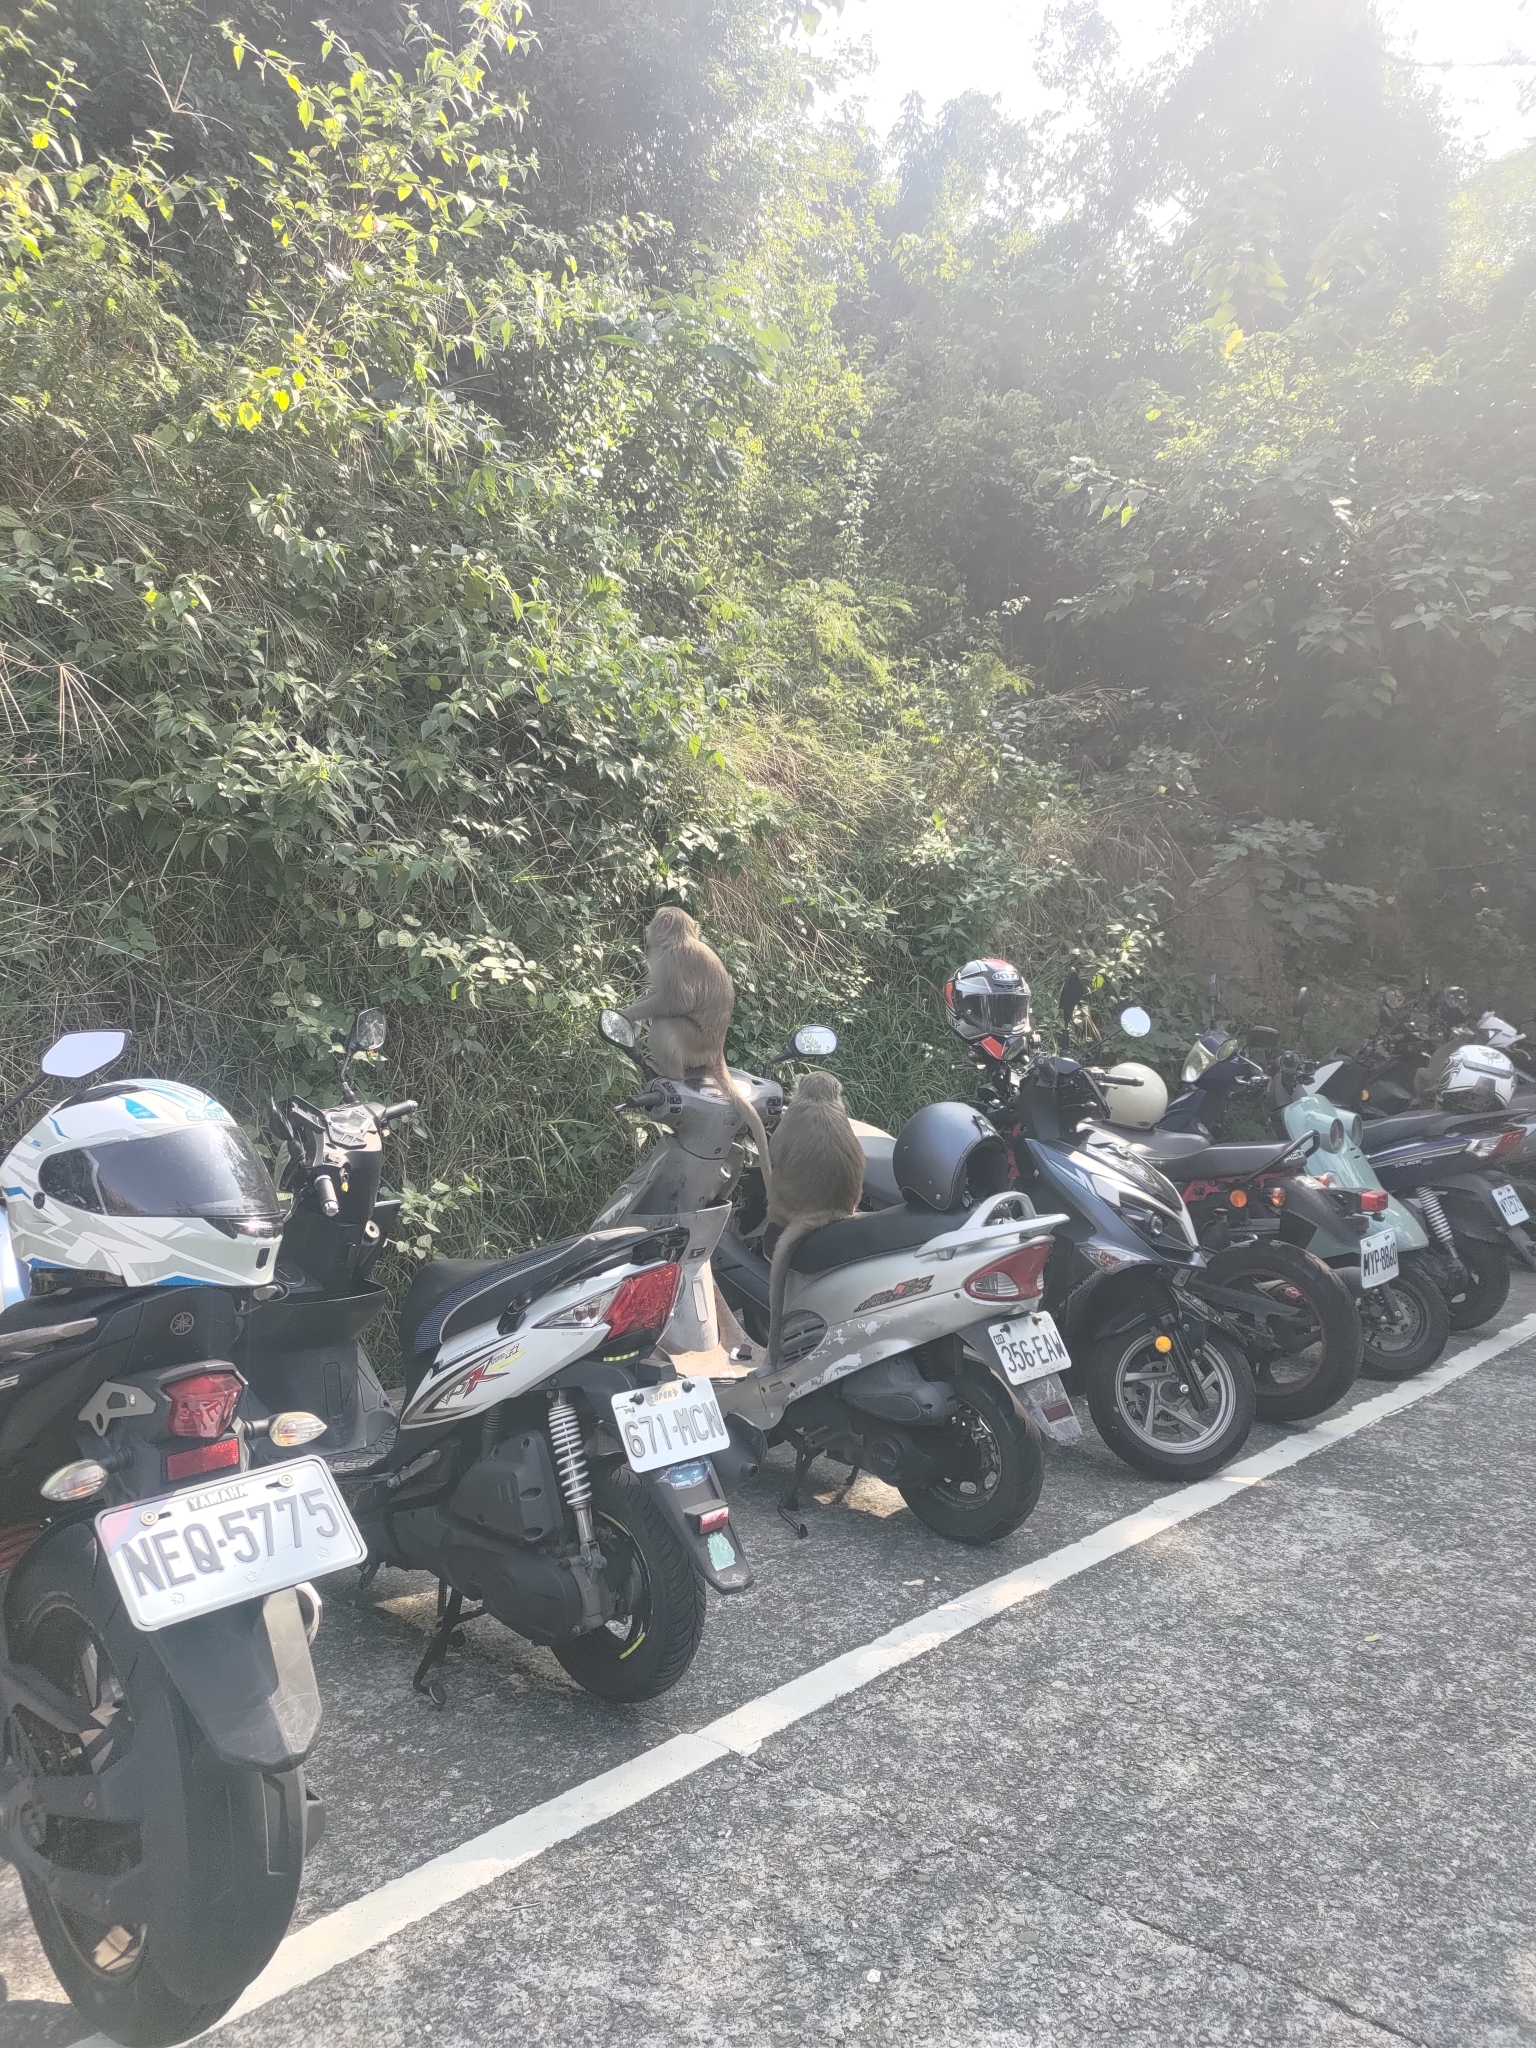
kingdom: Animalia
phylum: Chordata
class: Mammalia
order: Primates
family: Cercopithecidae
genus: Macaca
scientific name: Macaca cyclopis
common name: Formosan rock macaque
